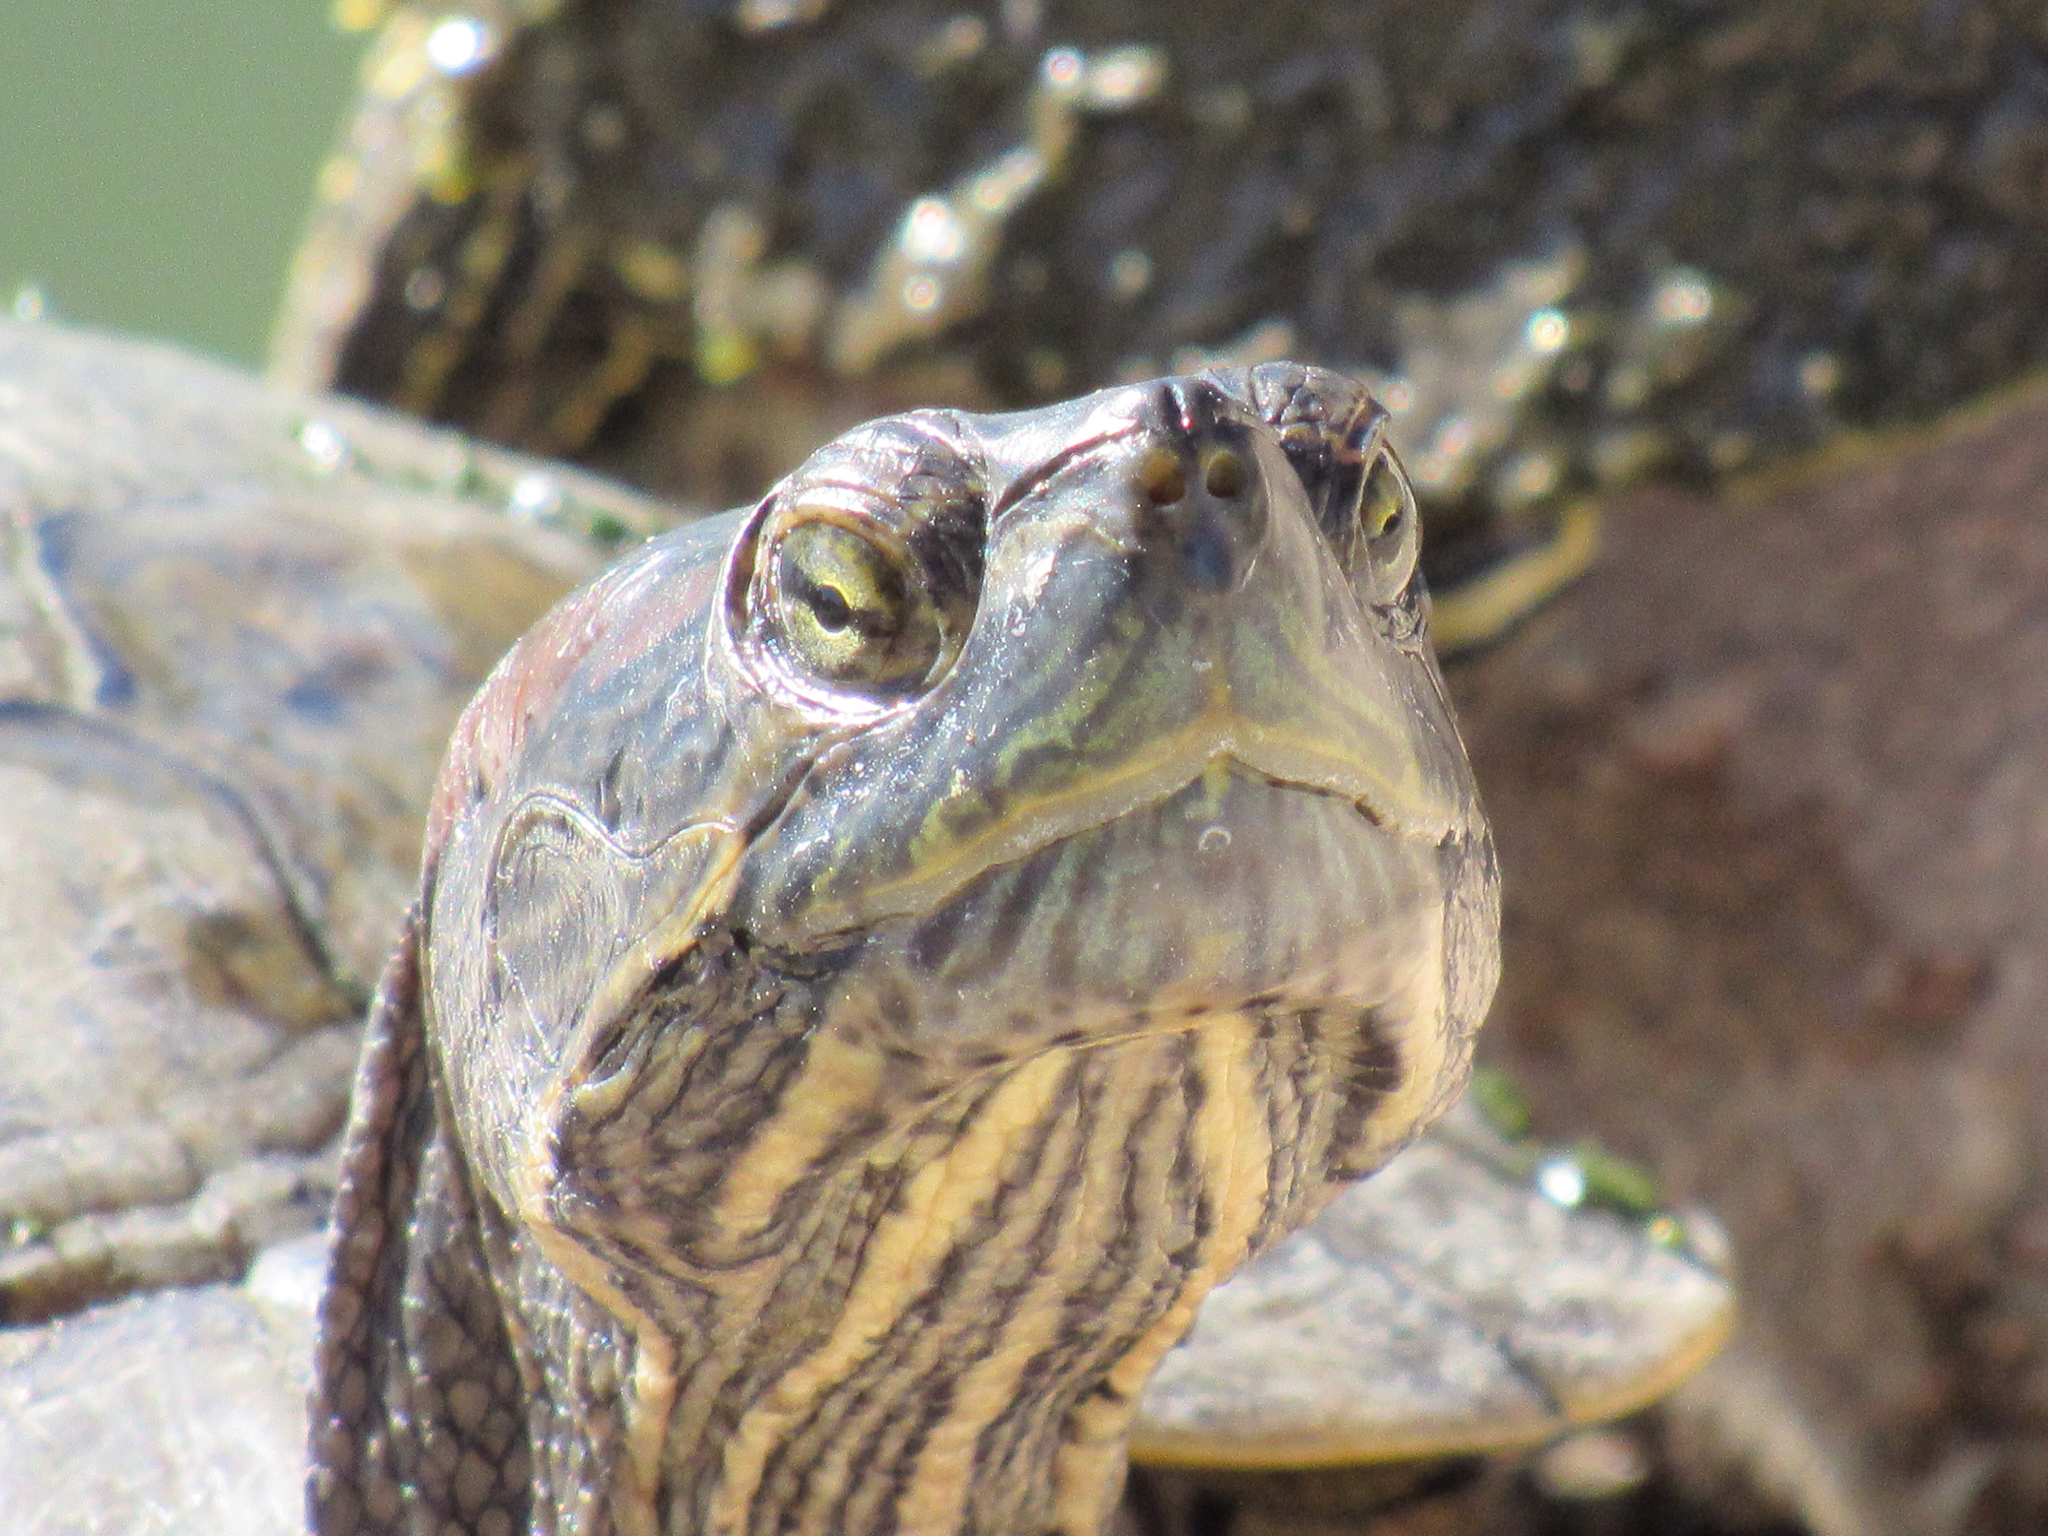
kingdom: Animalia
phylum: Chordata
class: Testudines
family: Emydidae
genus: Trachemys
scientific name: Trachemys scripta
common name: Slider
